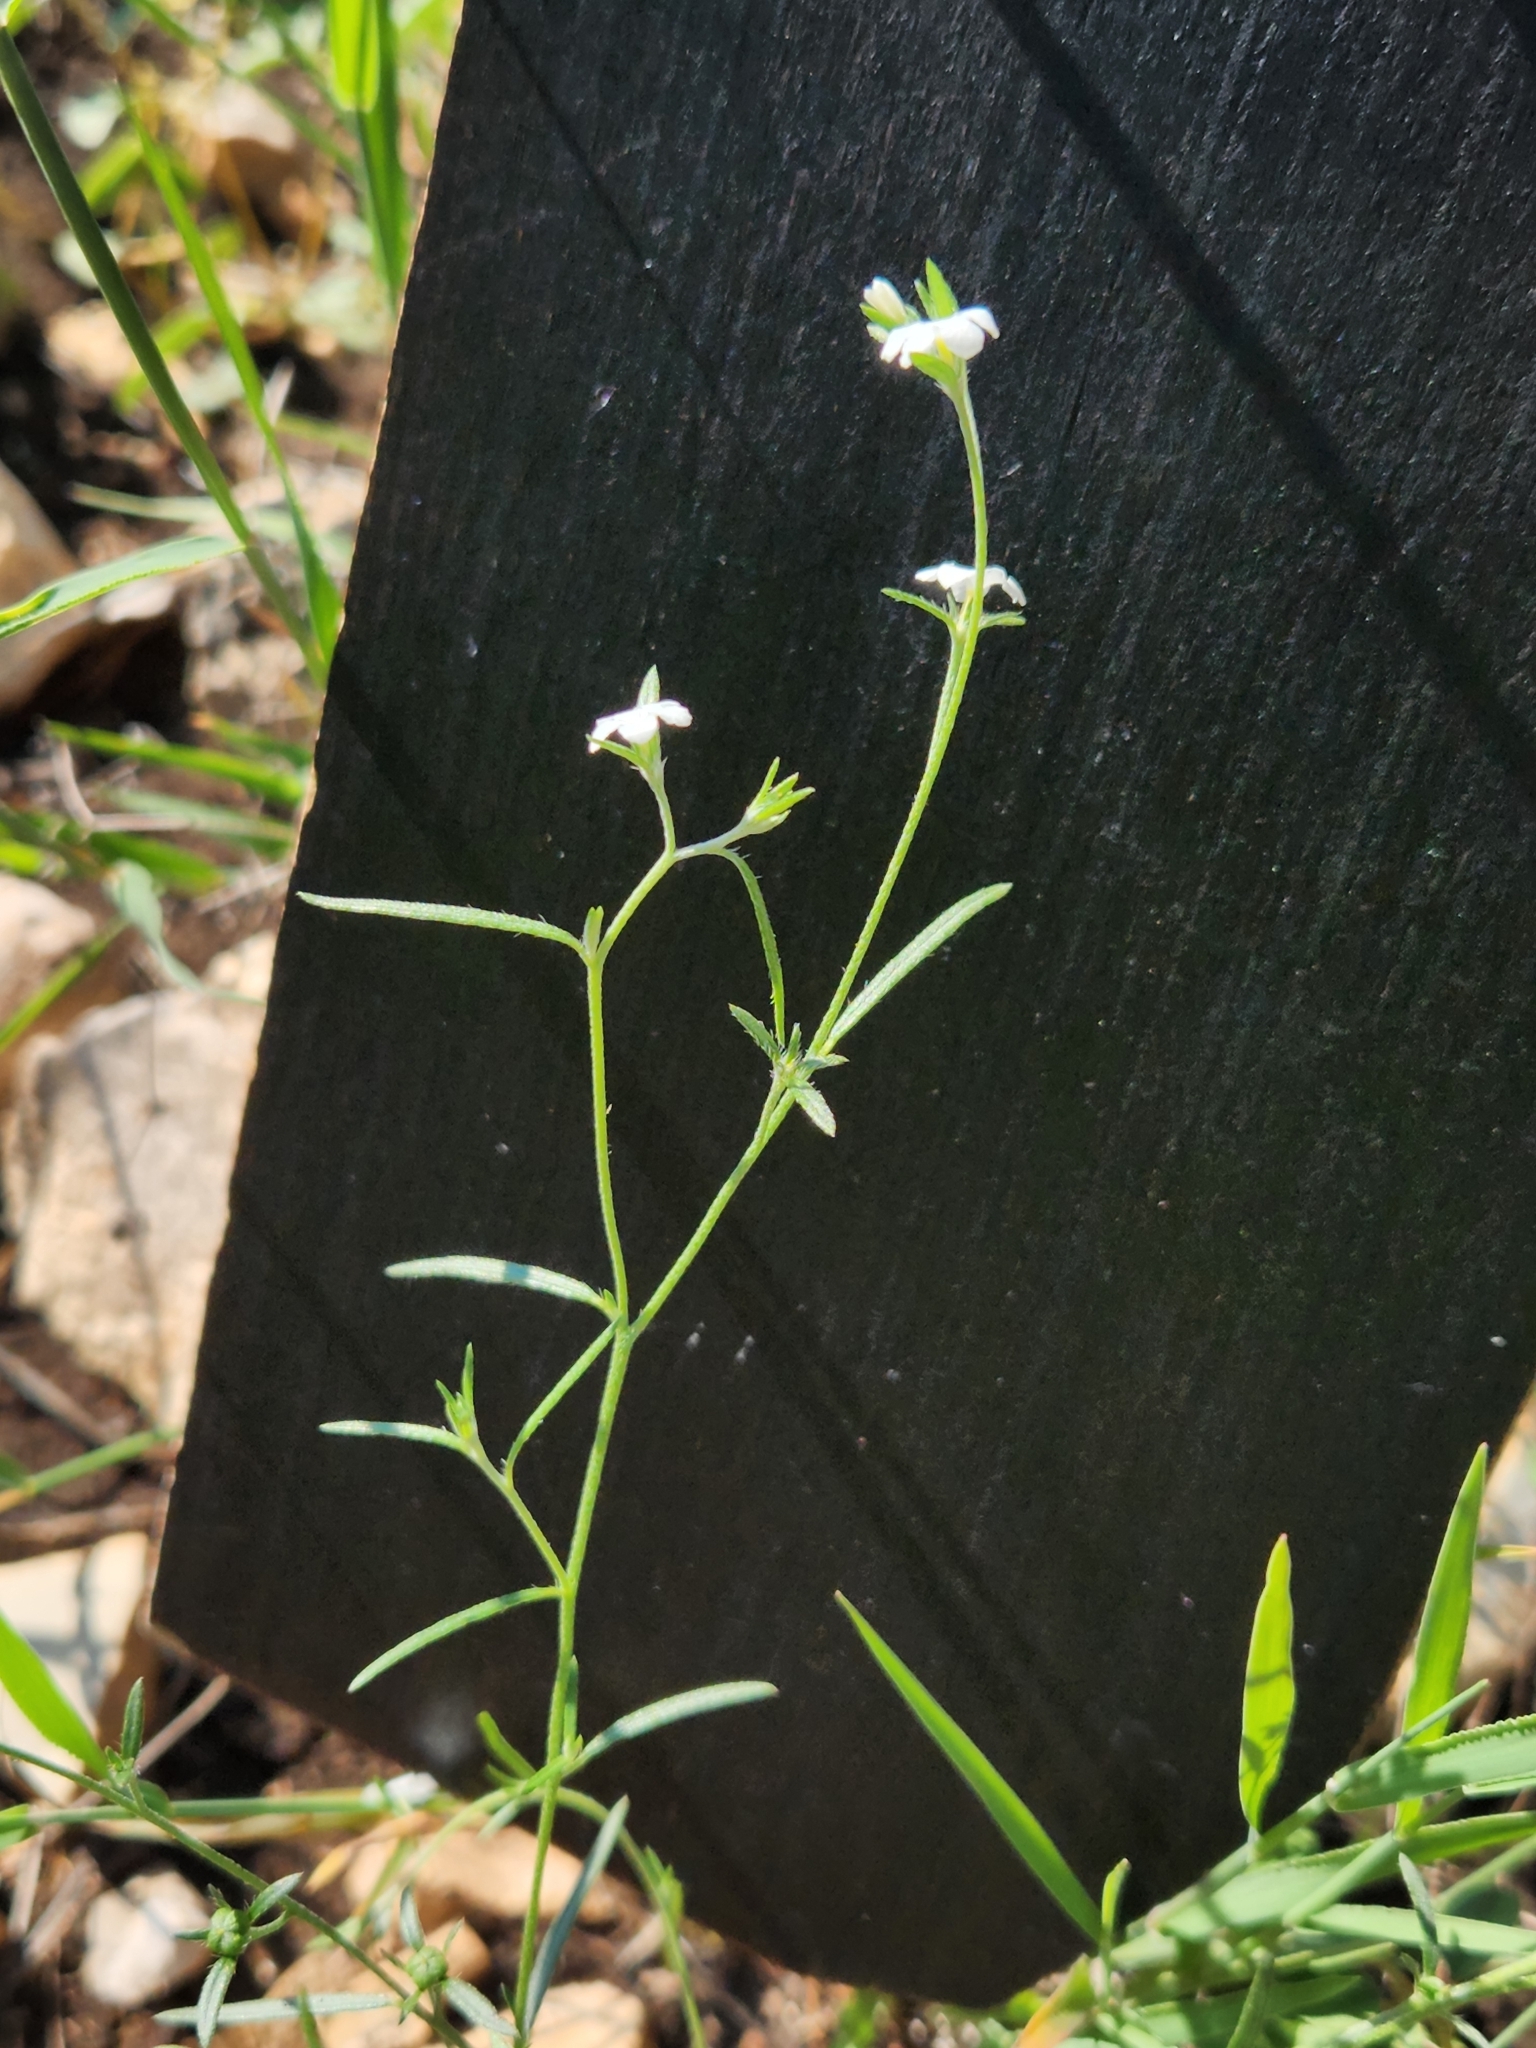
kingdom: Plantae
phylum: Tracheophyta
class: Magnoliopsida
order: Boraginales
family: Heliotropiaceae
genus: Euploca
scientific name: Euploca tenella
